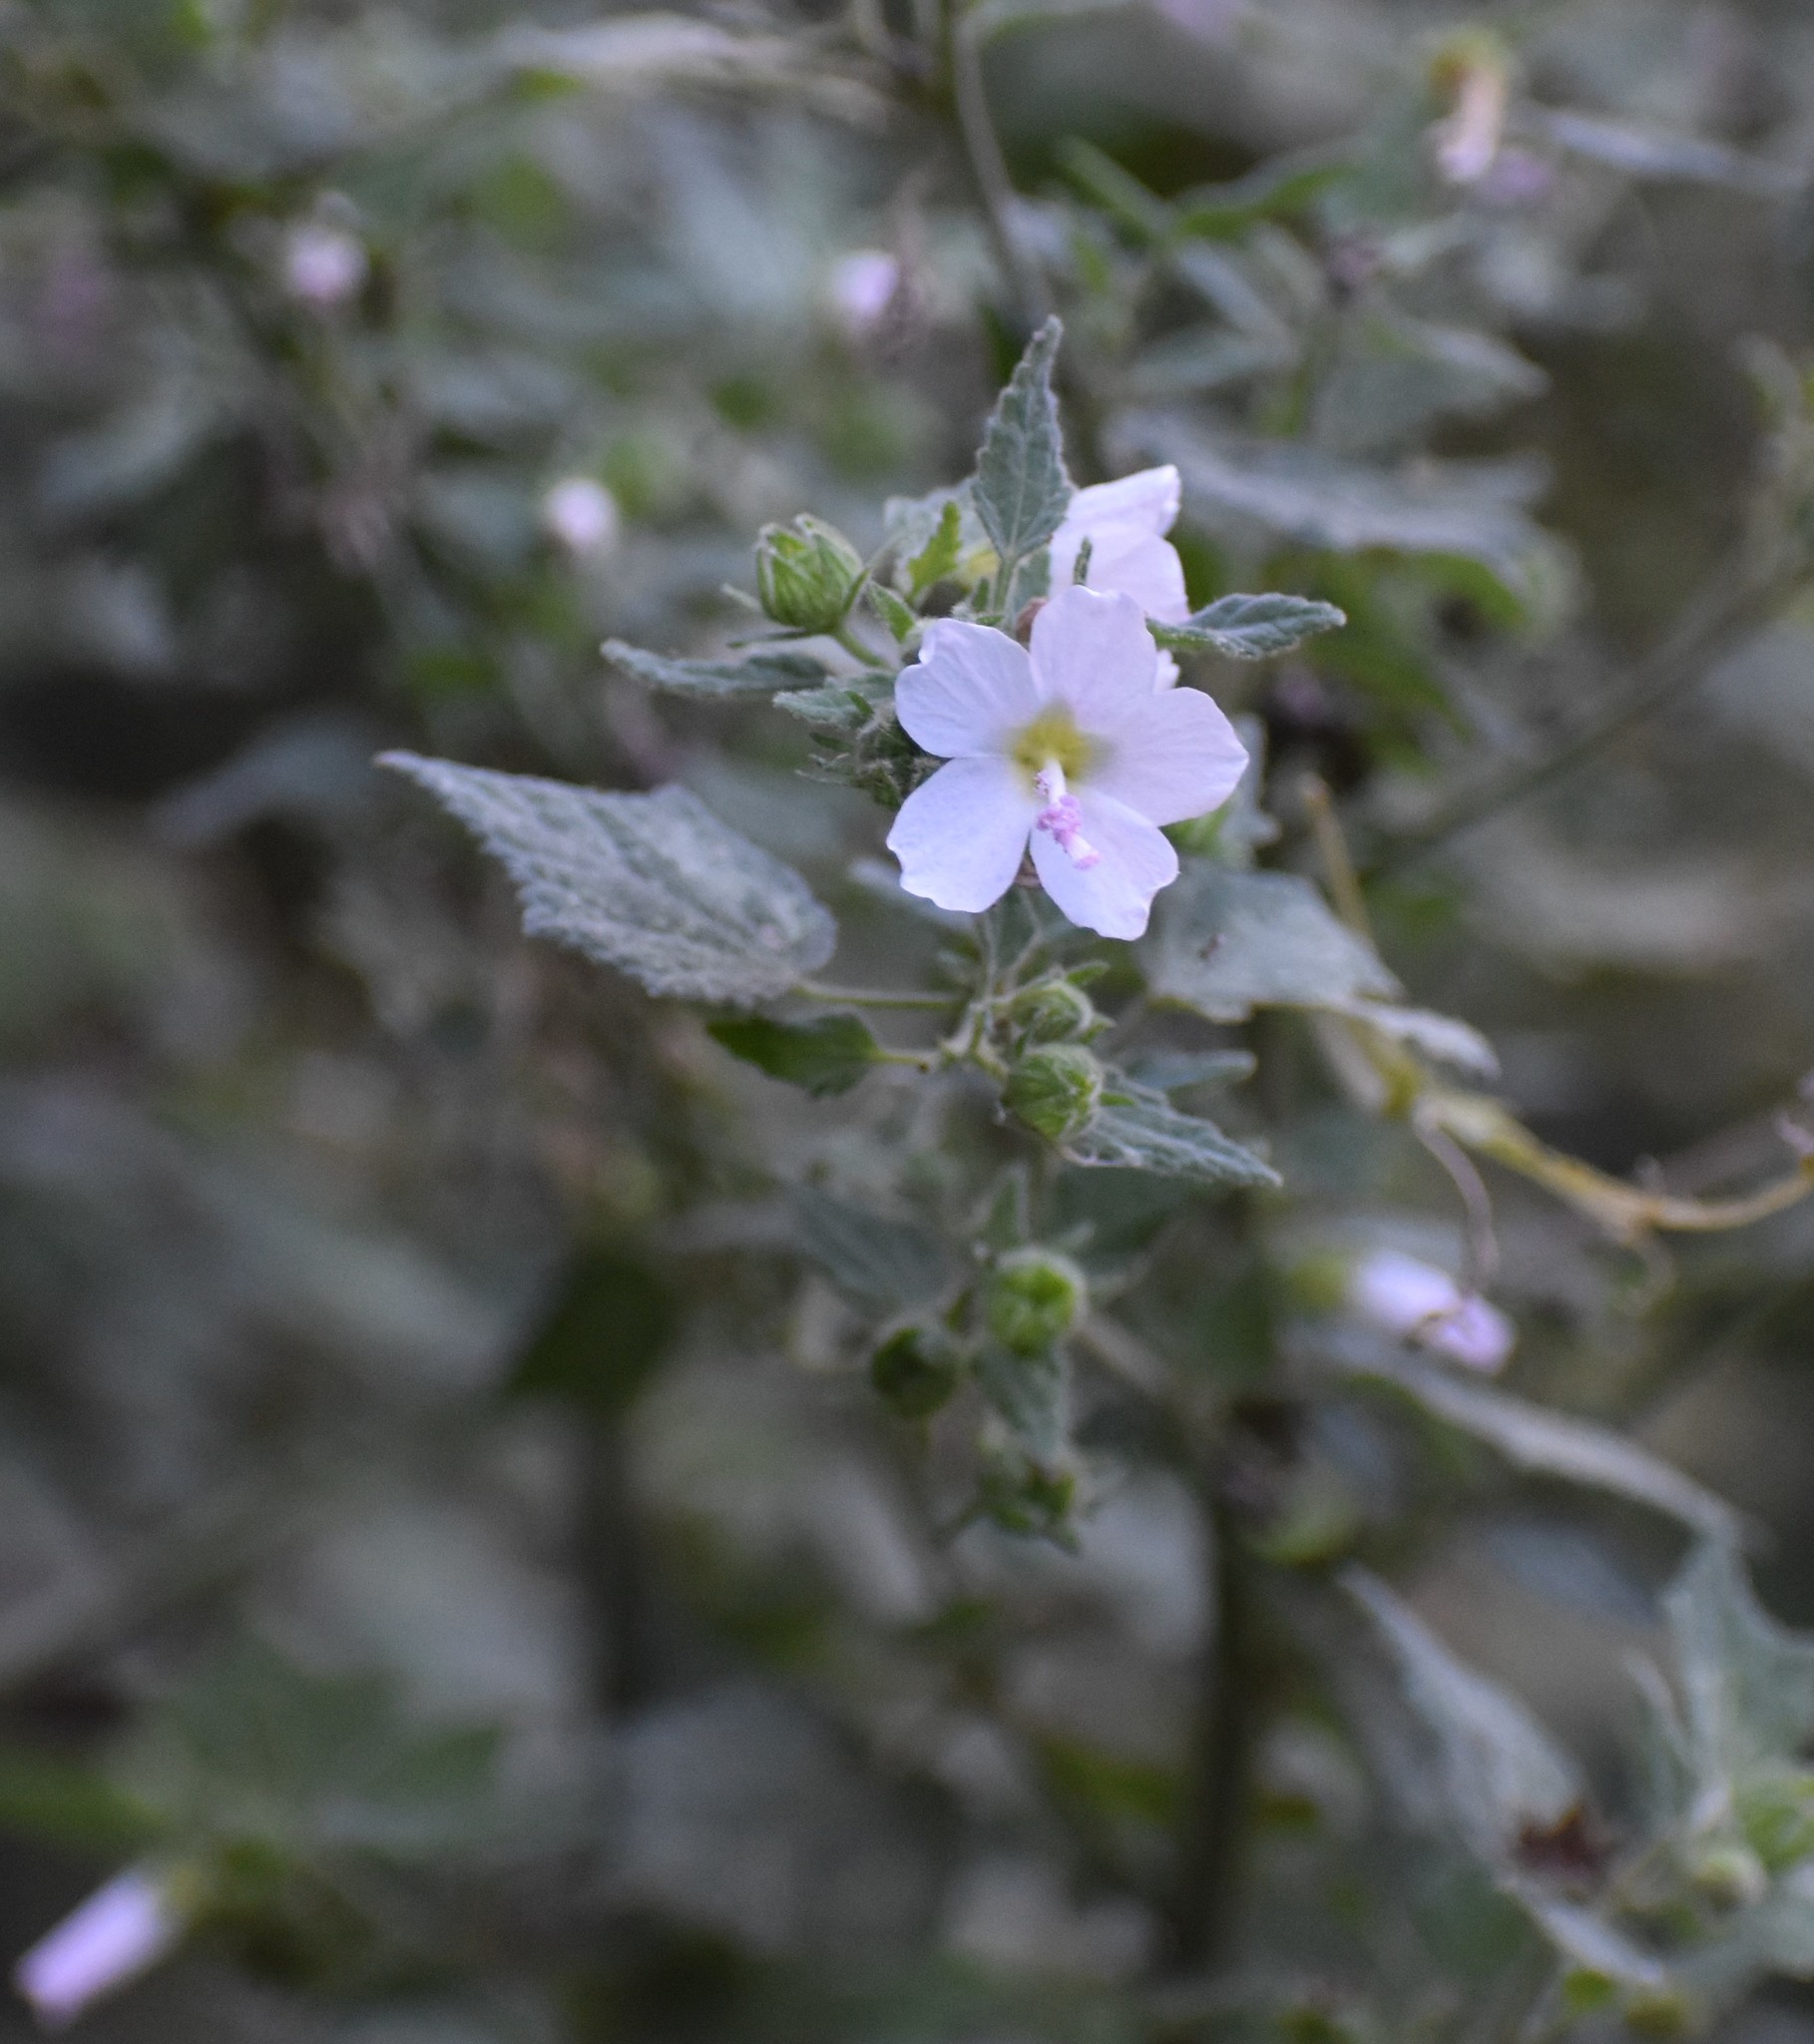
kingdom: Plantae
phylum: Tracheophyta
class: Magnoliopsida
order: Malvales
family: Malvaceae
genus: Pavonia
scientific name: Pavonia columella
